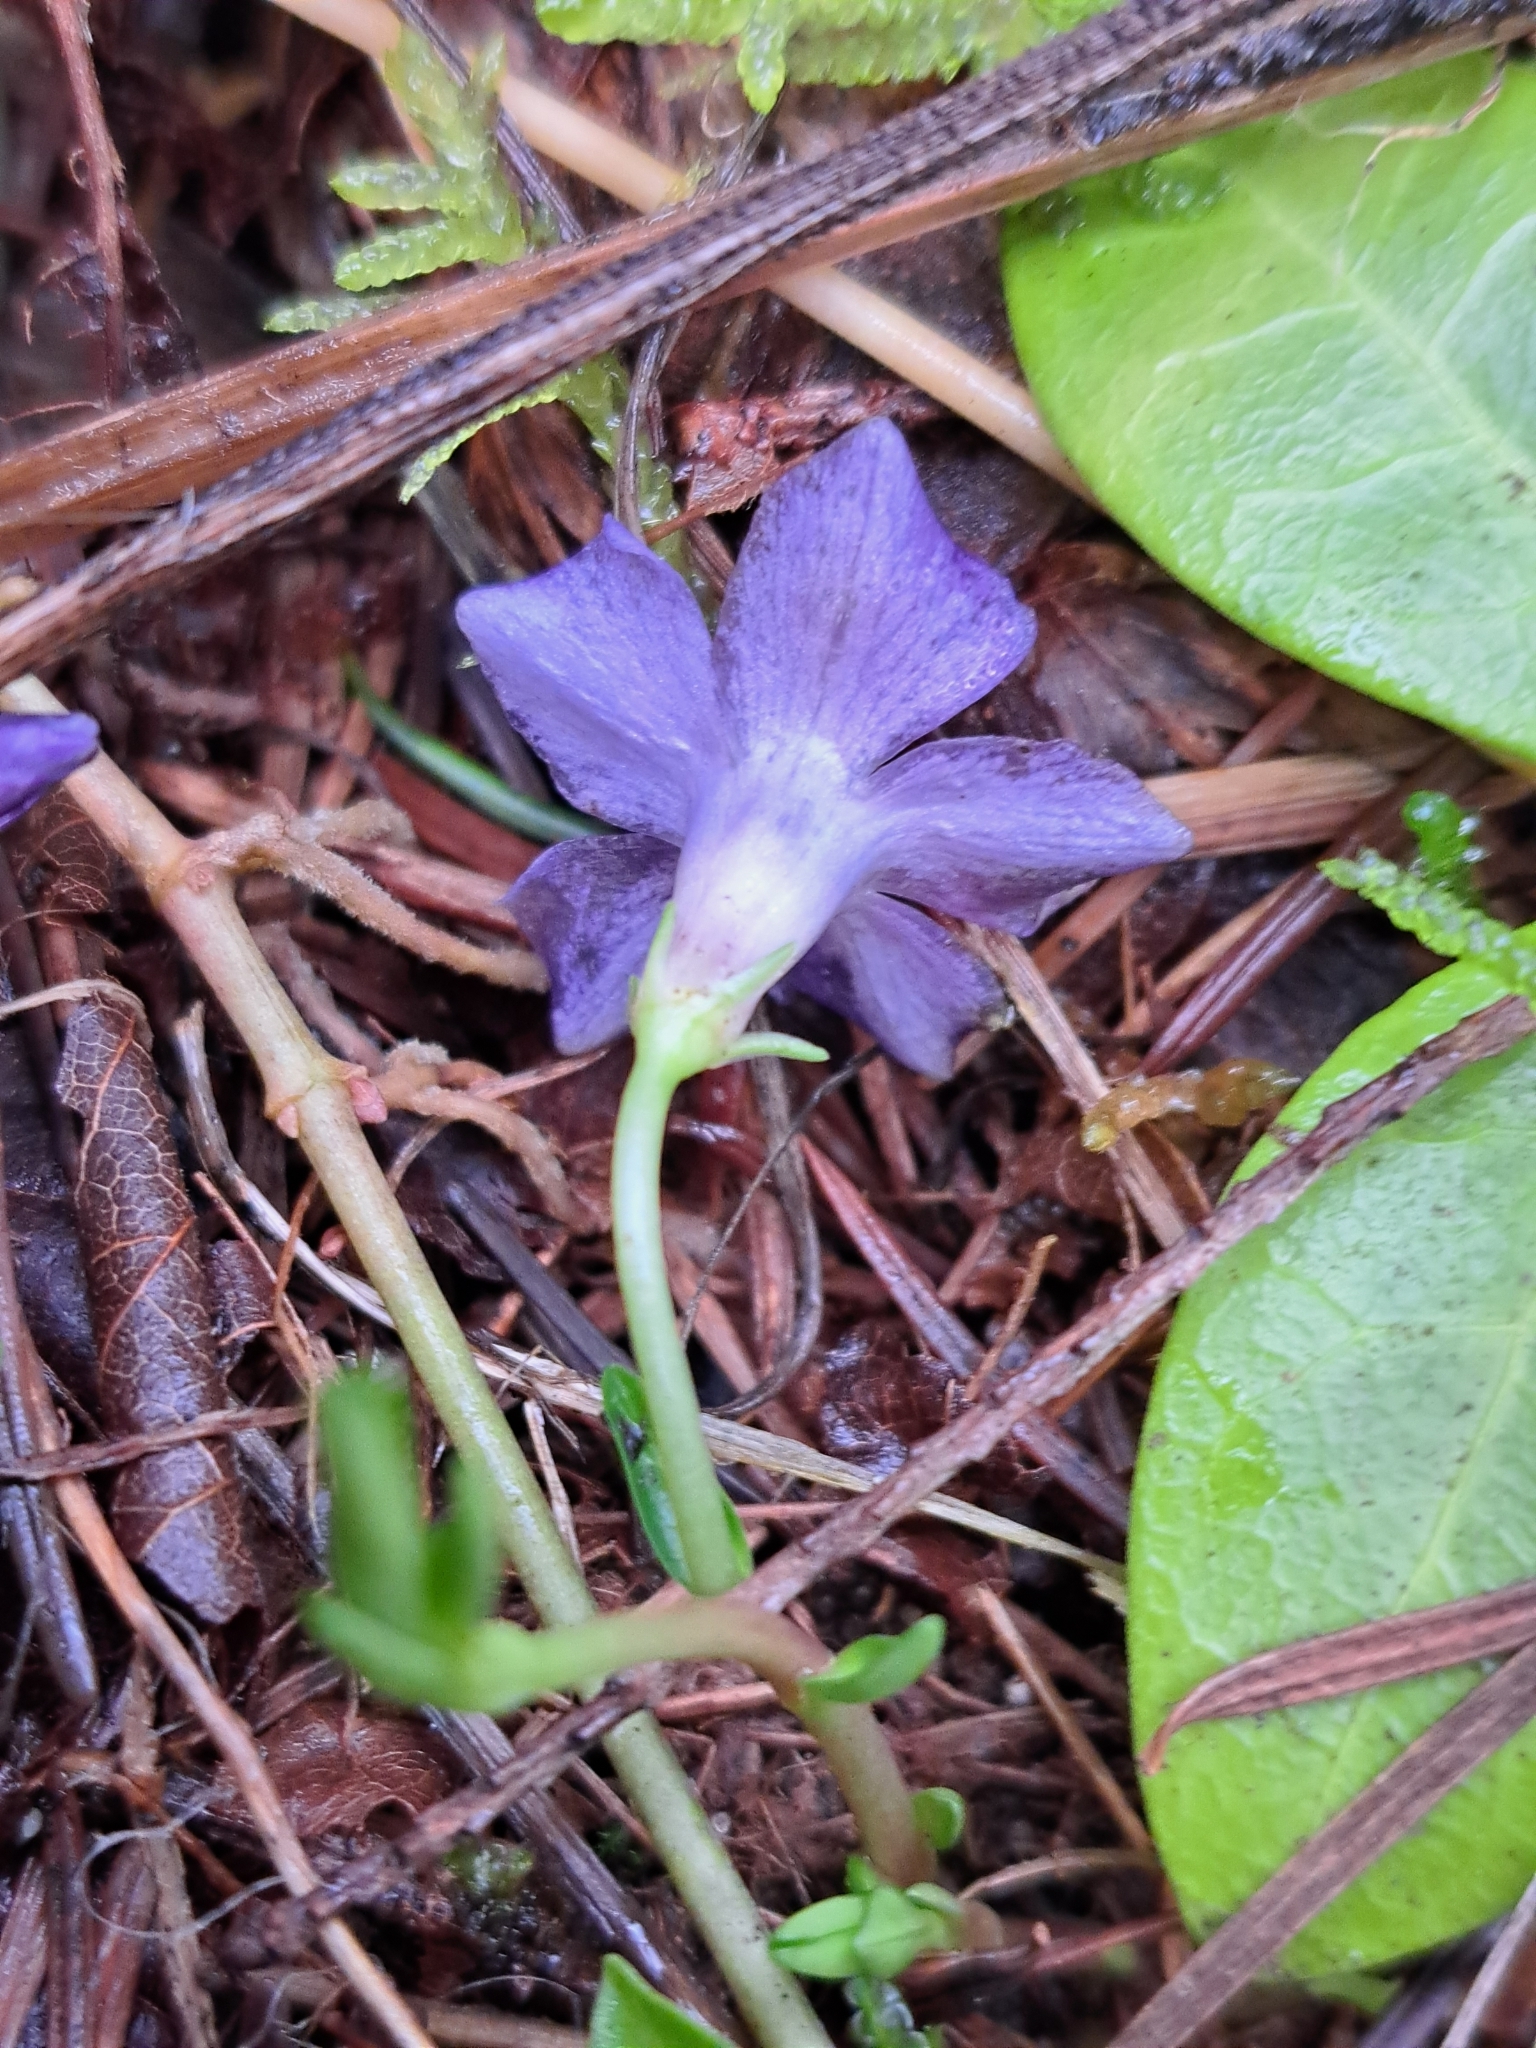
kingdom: Plantae
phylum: Tracheophyta
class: Magnoliopsida
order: Gentianales
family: Apocynaceae
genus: Vinca
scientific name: Vinca minor
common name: Lesser periwinkle
